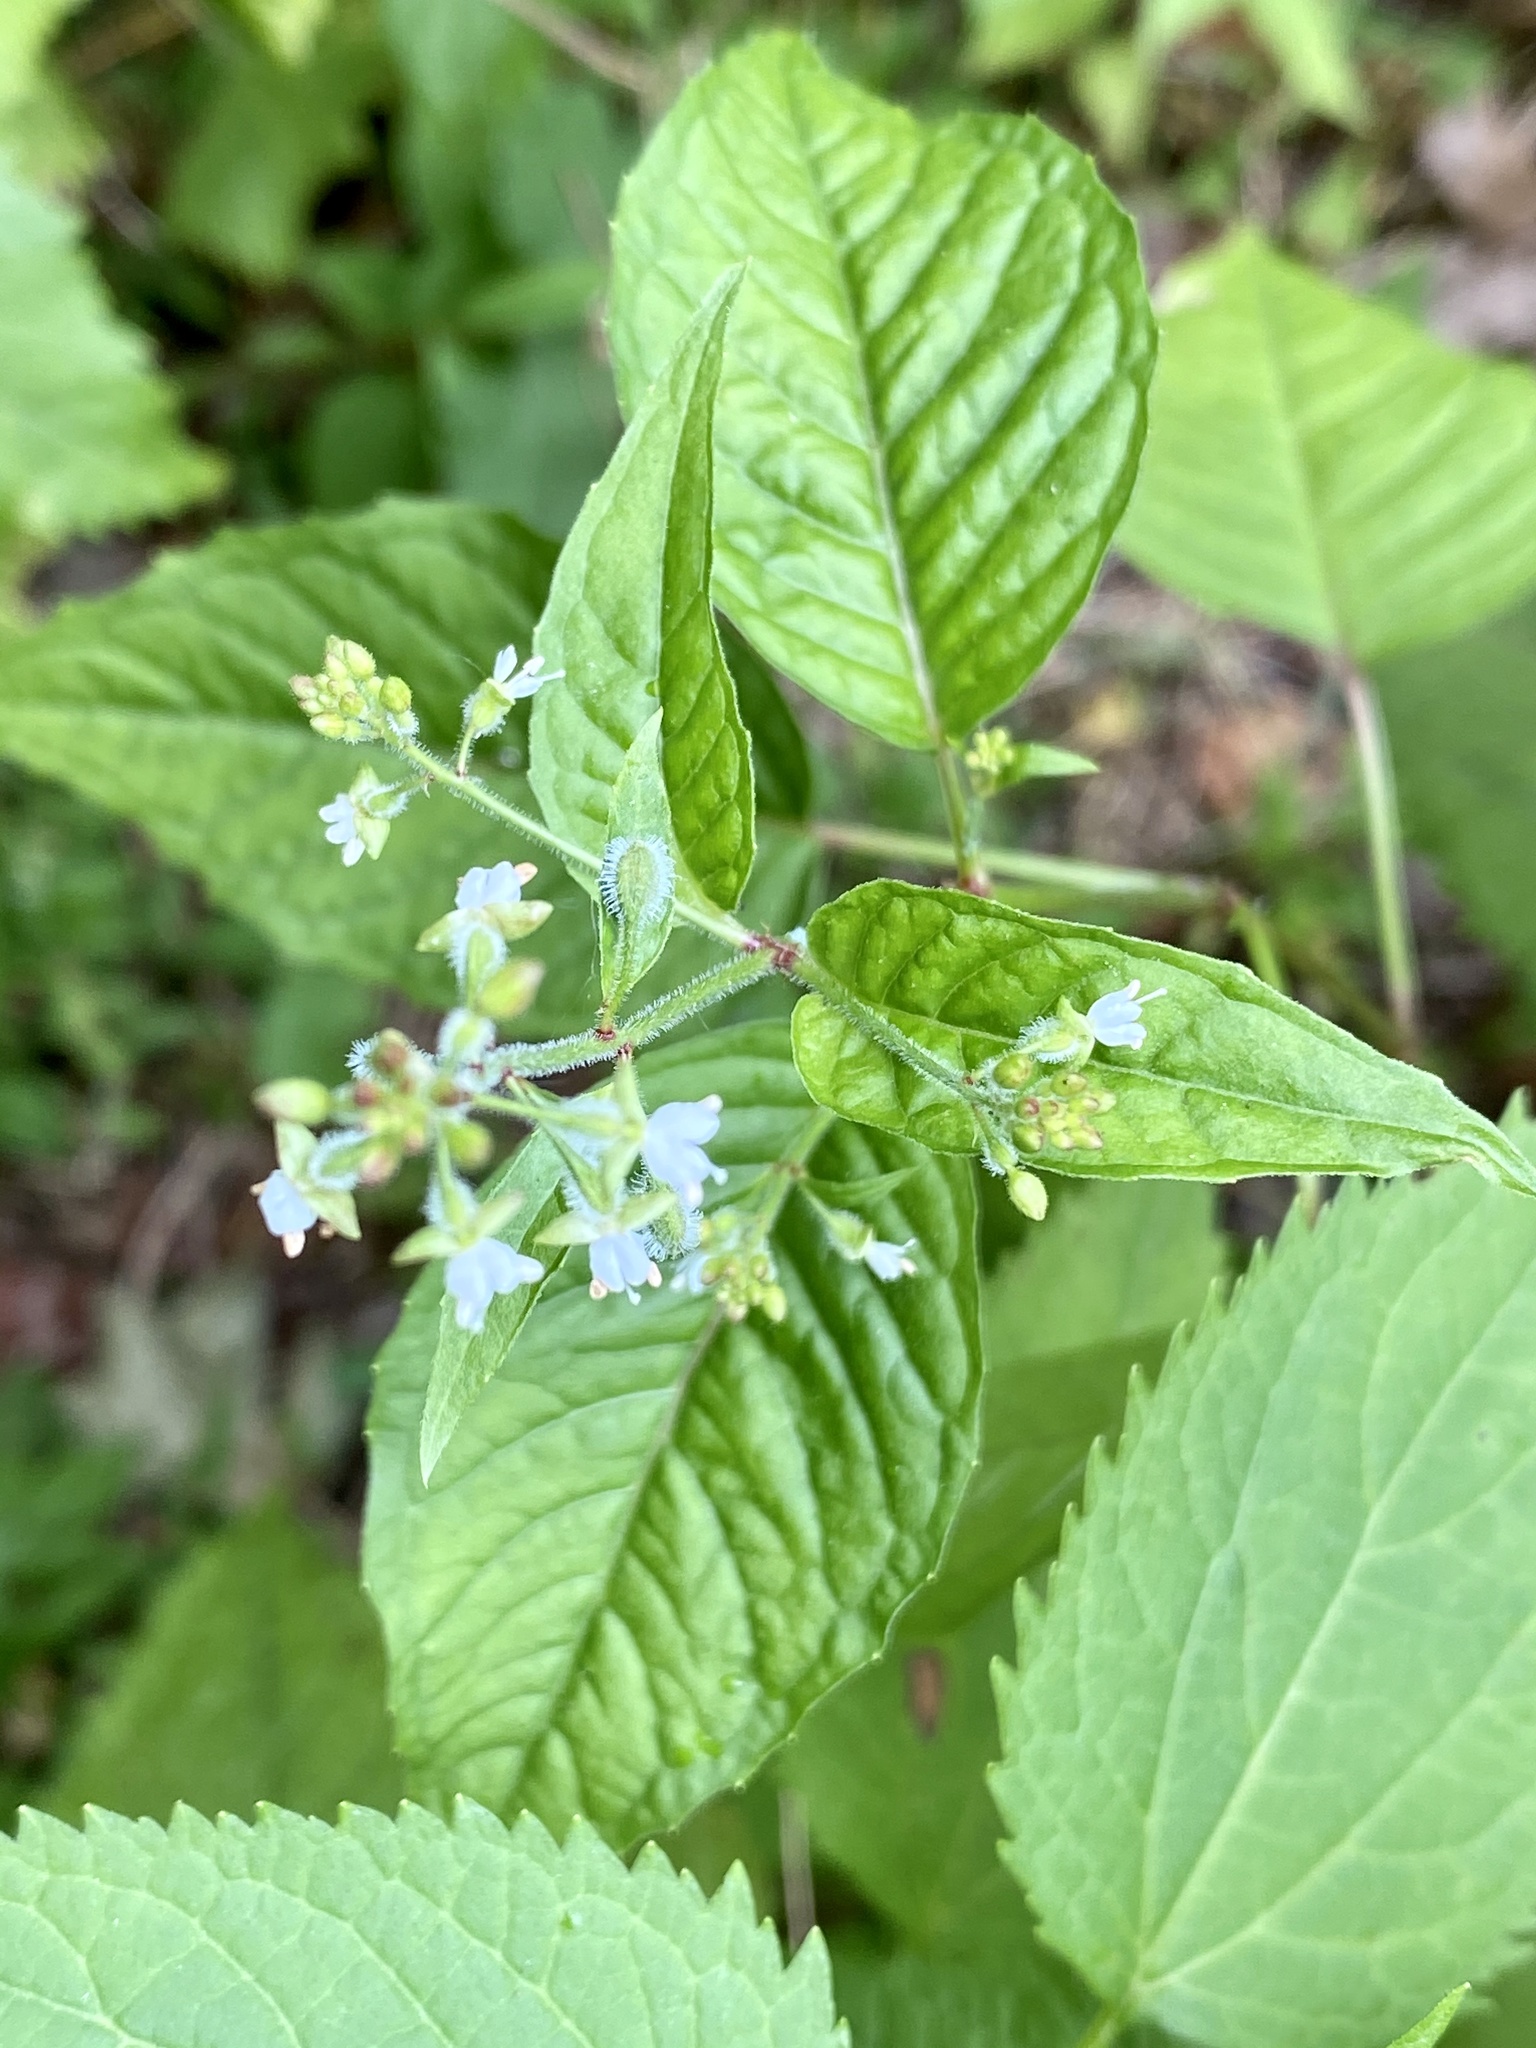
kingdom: Plantae
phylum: Tracheophyta
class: Magnoliopsida
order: Myrtales
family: Onagraceae
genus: Circaea
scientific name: Circaea canadensis
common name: Broad-leaved enchanter's nightshade
